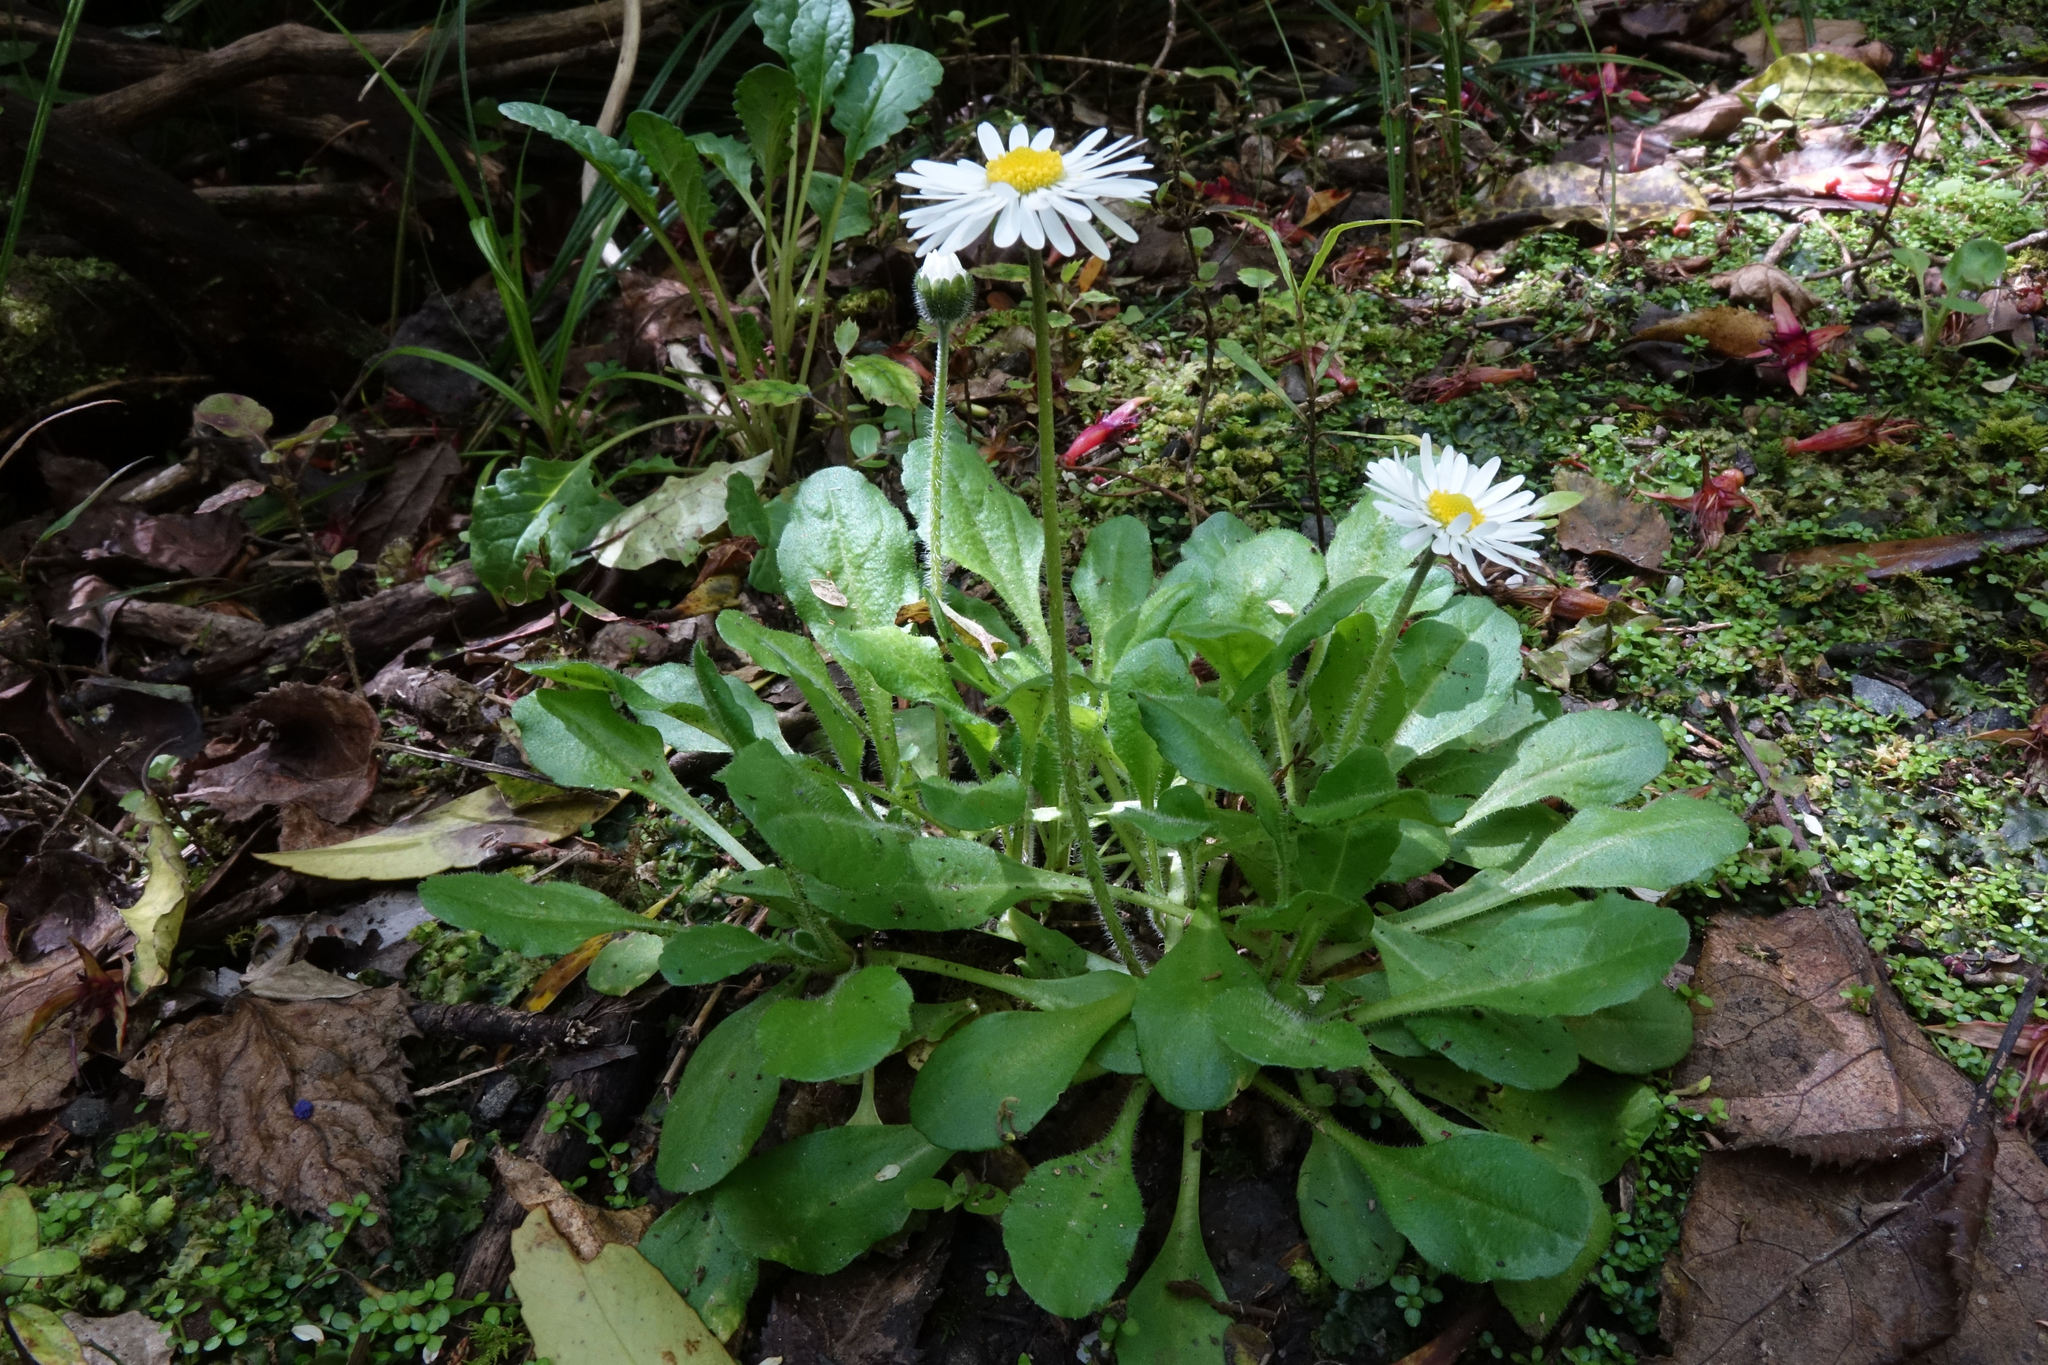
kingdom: Plantae
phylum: Tracheophyta
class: Magnoliopsida
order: Asterales
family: Asteraceae
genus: Bellis
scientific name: Bellis perennis
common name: Lawndaisy
